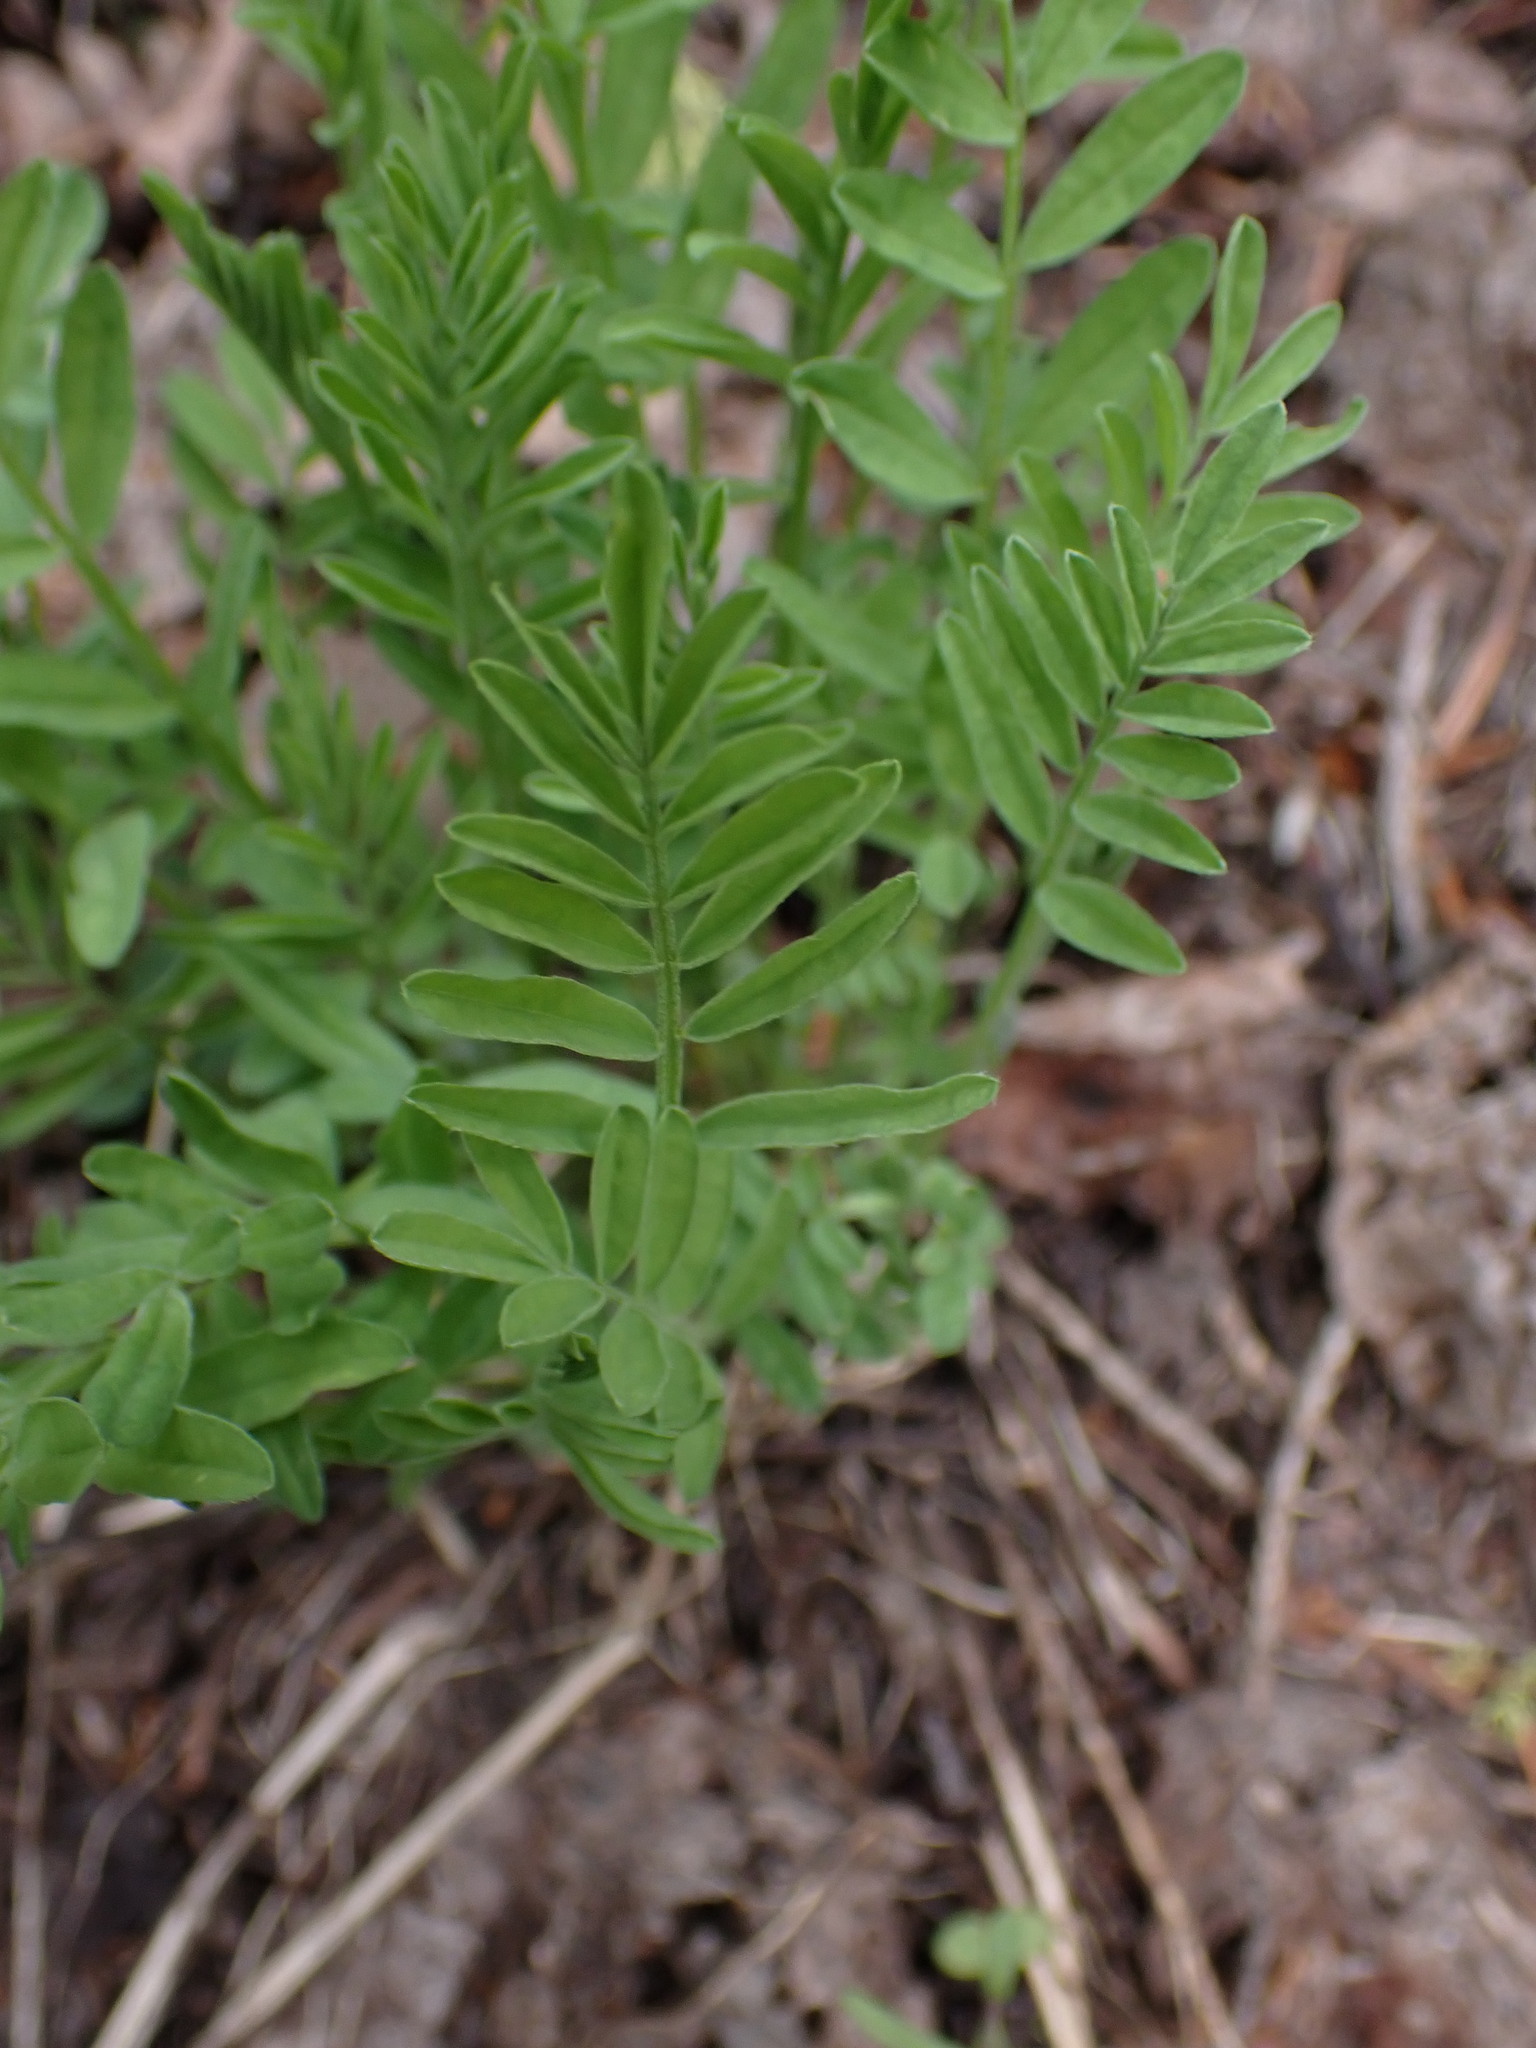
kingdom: Plantae
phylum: Tracheophyta
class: Magnoliopsida
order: Fabales
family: Fabaceae
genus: Astragalus
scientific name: Astragalus miser
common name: Timber milkvetch
